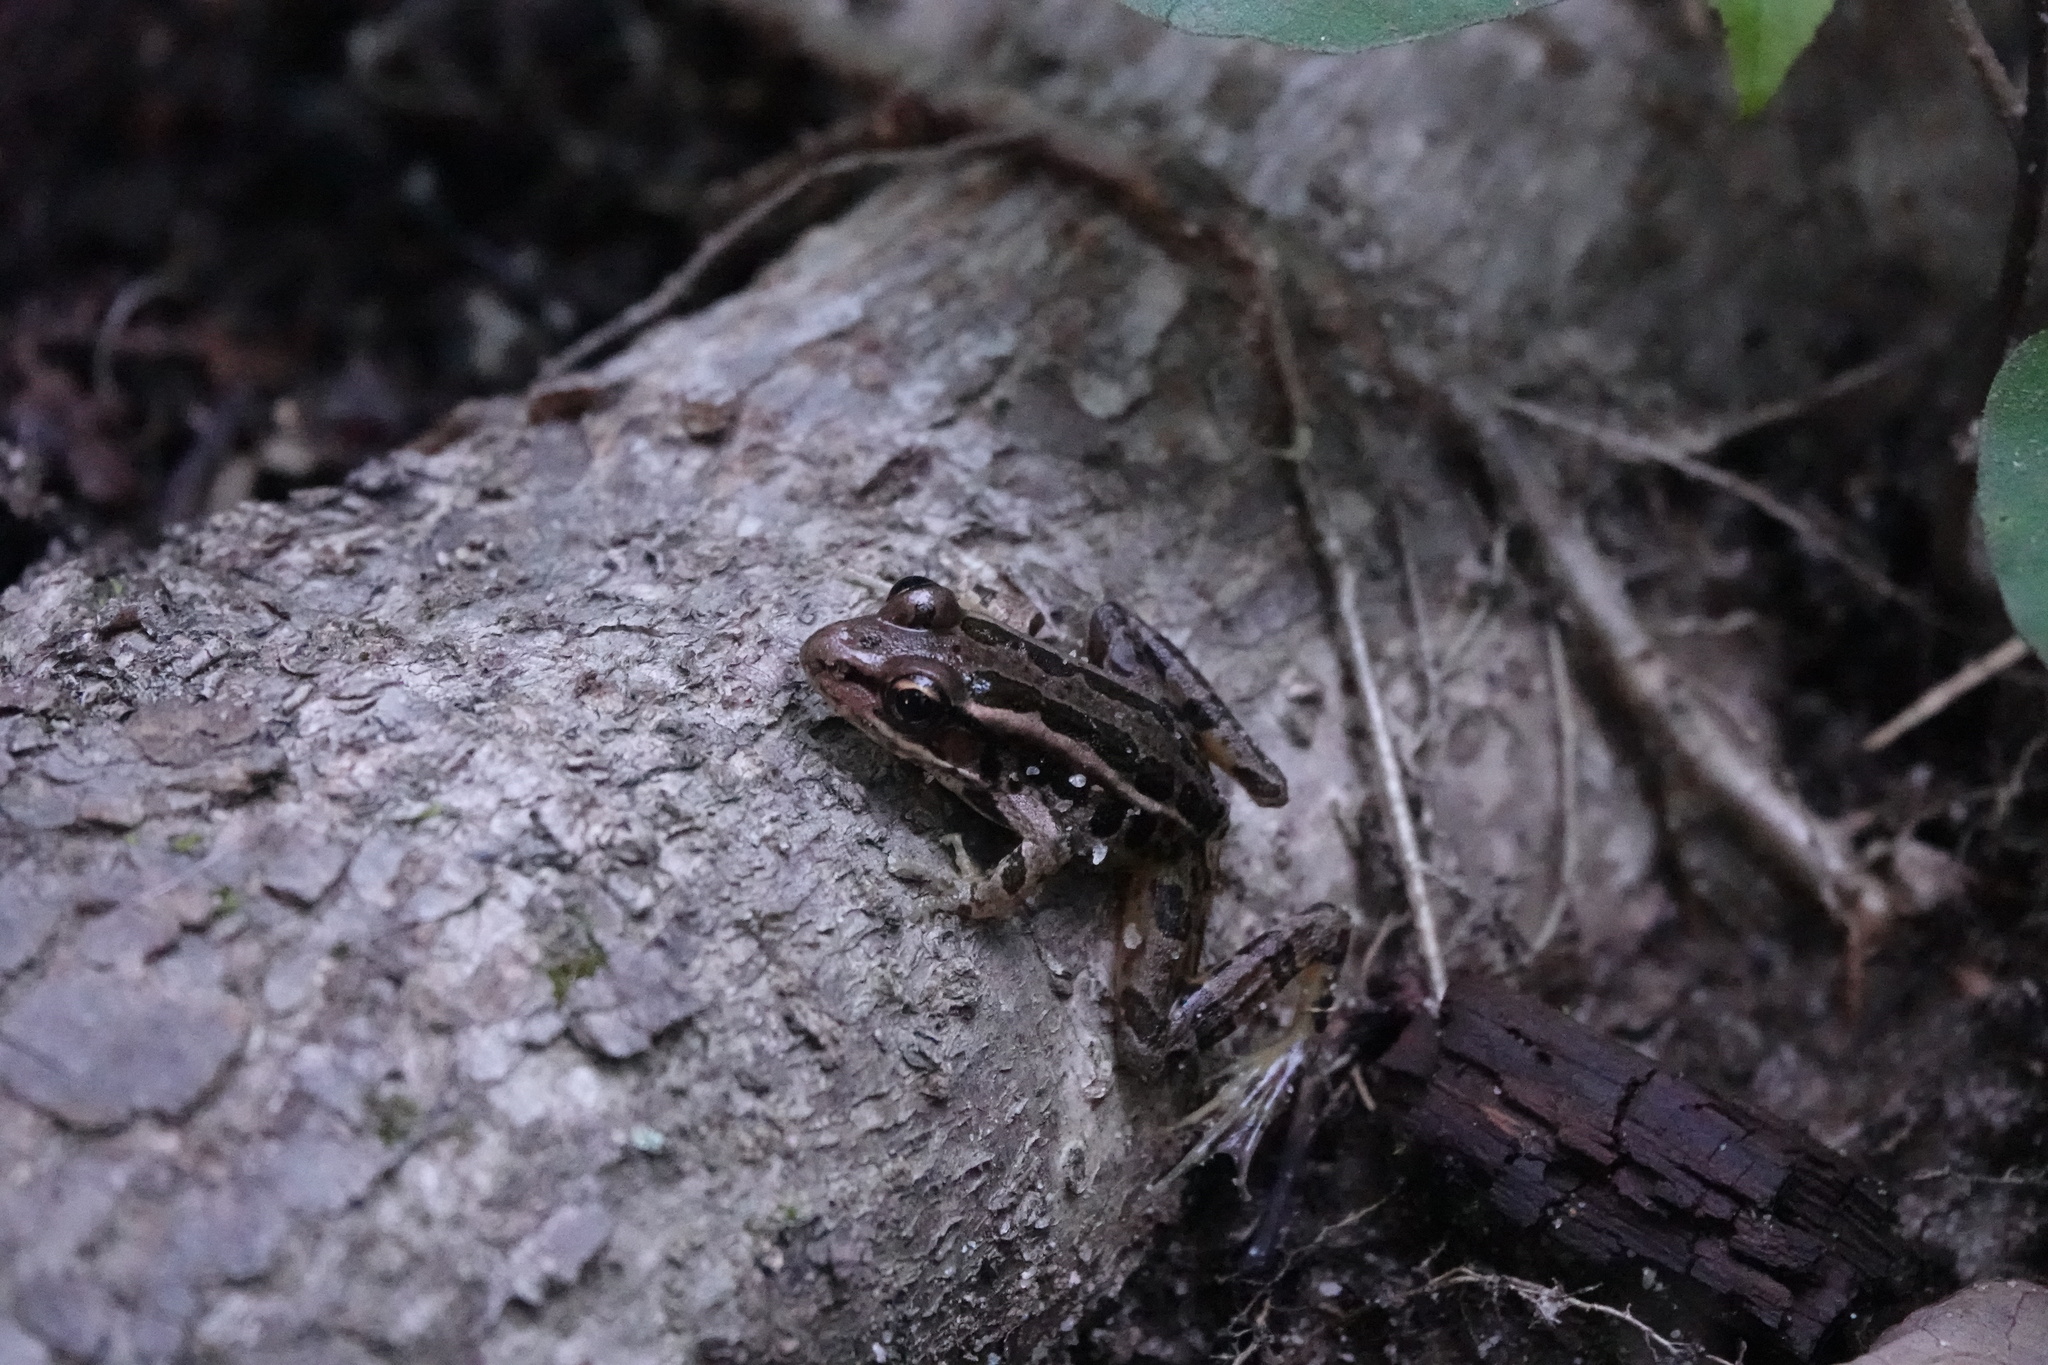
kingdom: Animalia
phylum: Chordata
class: Amphibia
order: Anura
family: Ranidae
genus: Lithobates
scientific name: Lithobates palustris
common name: Pickerel frog
